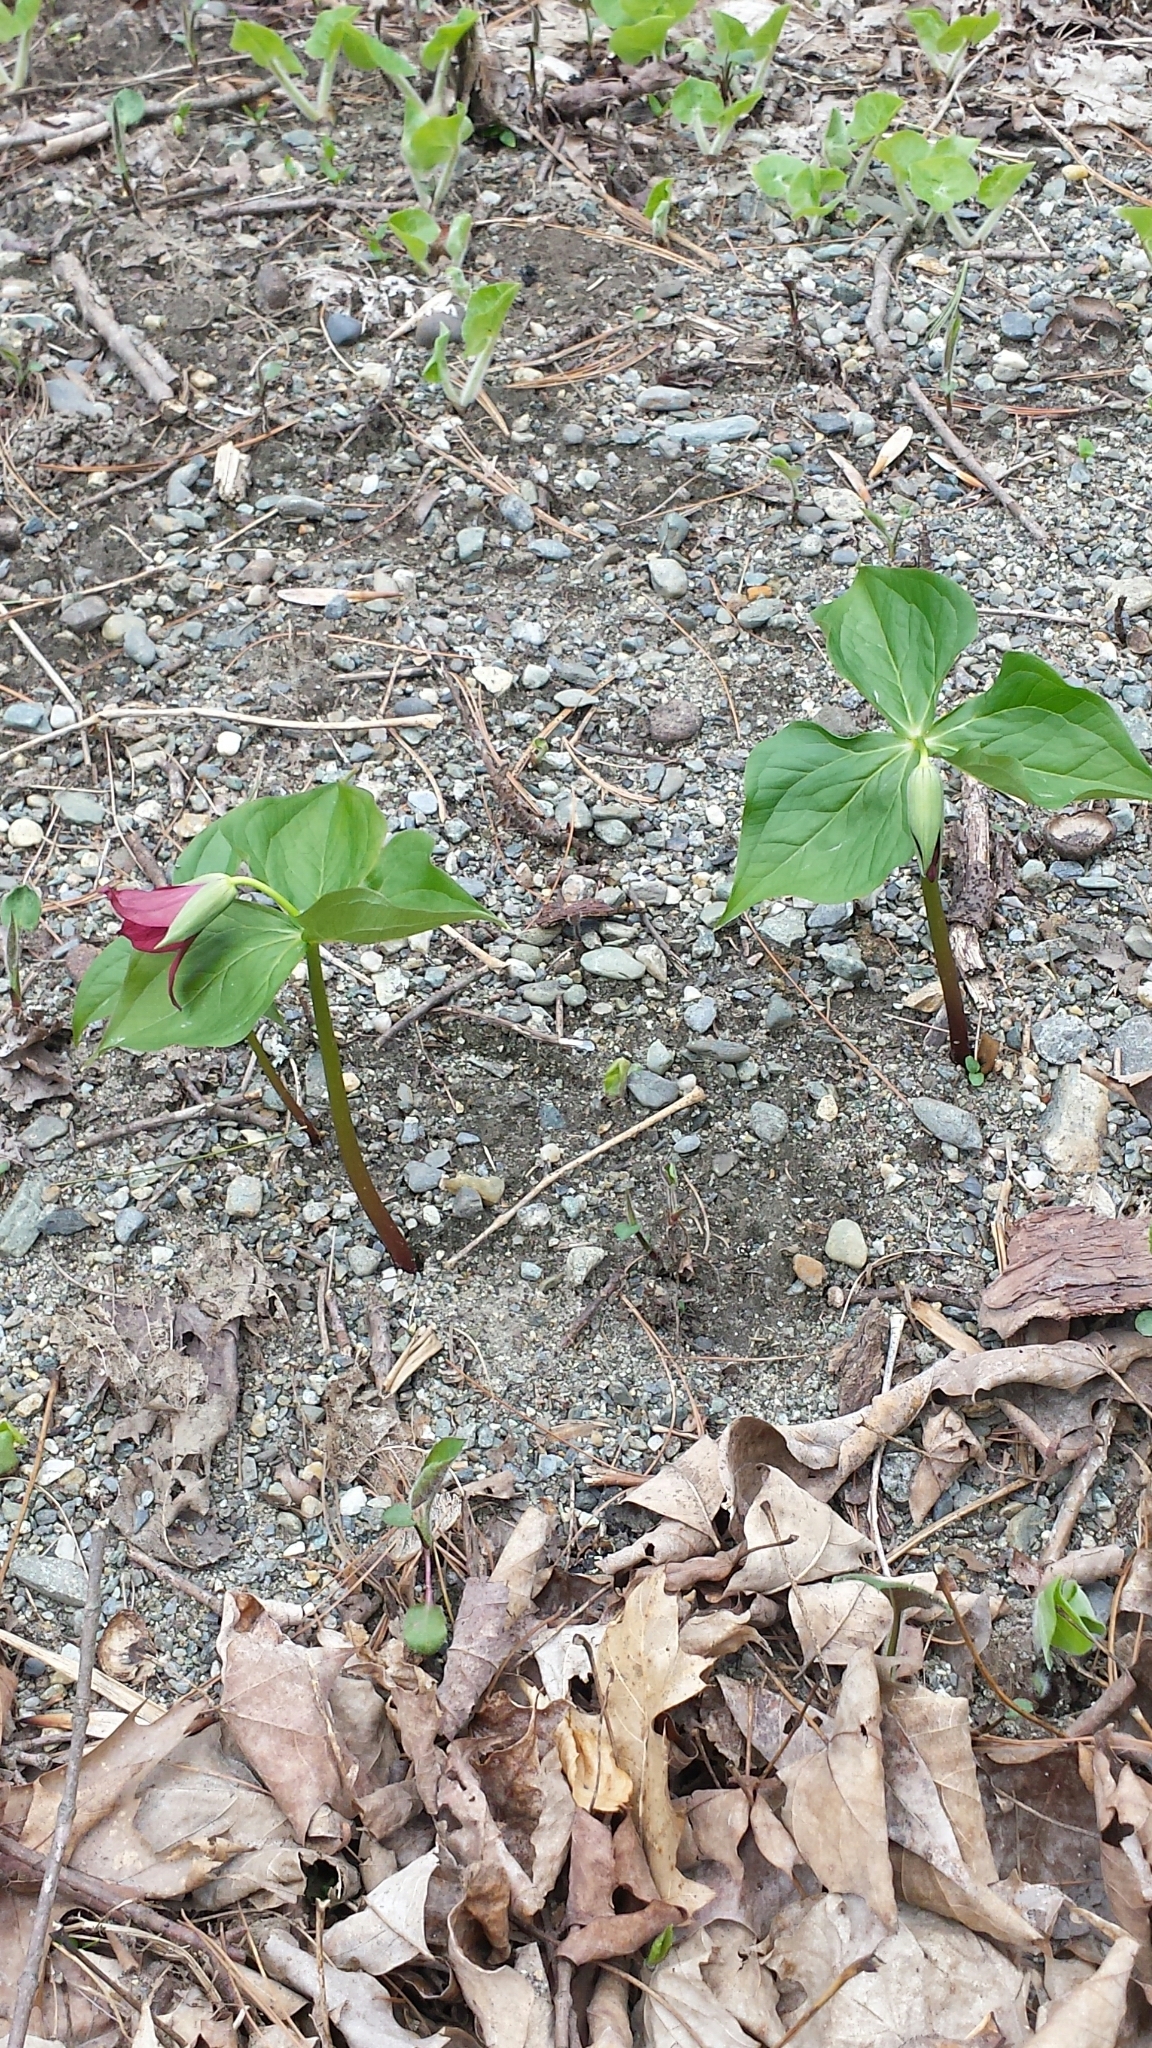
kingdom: Plantae
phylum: Tracheophyta
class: Liliopsida
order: Liliales
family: Melanthiaceae
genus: Trillium
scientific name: Trillium erectum
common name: Purple trillium
